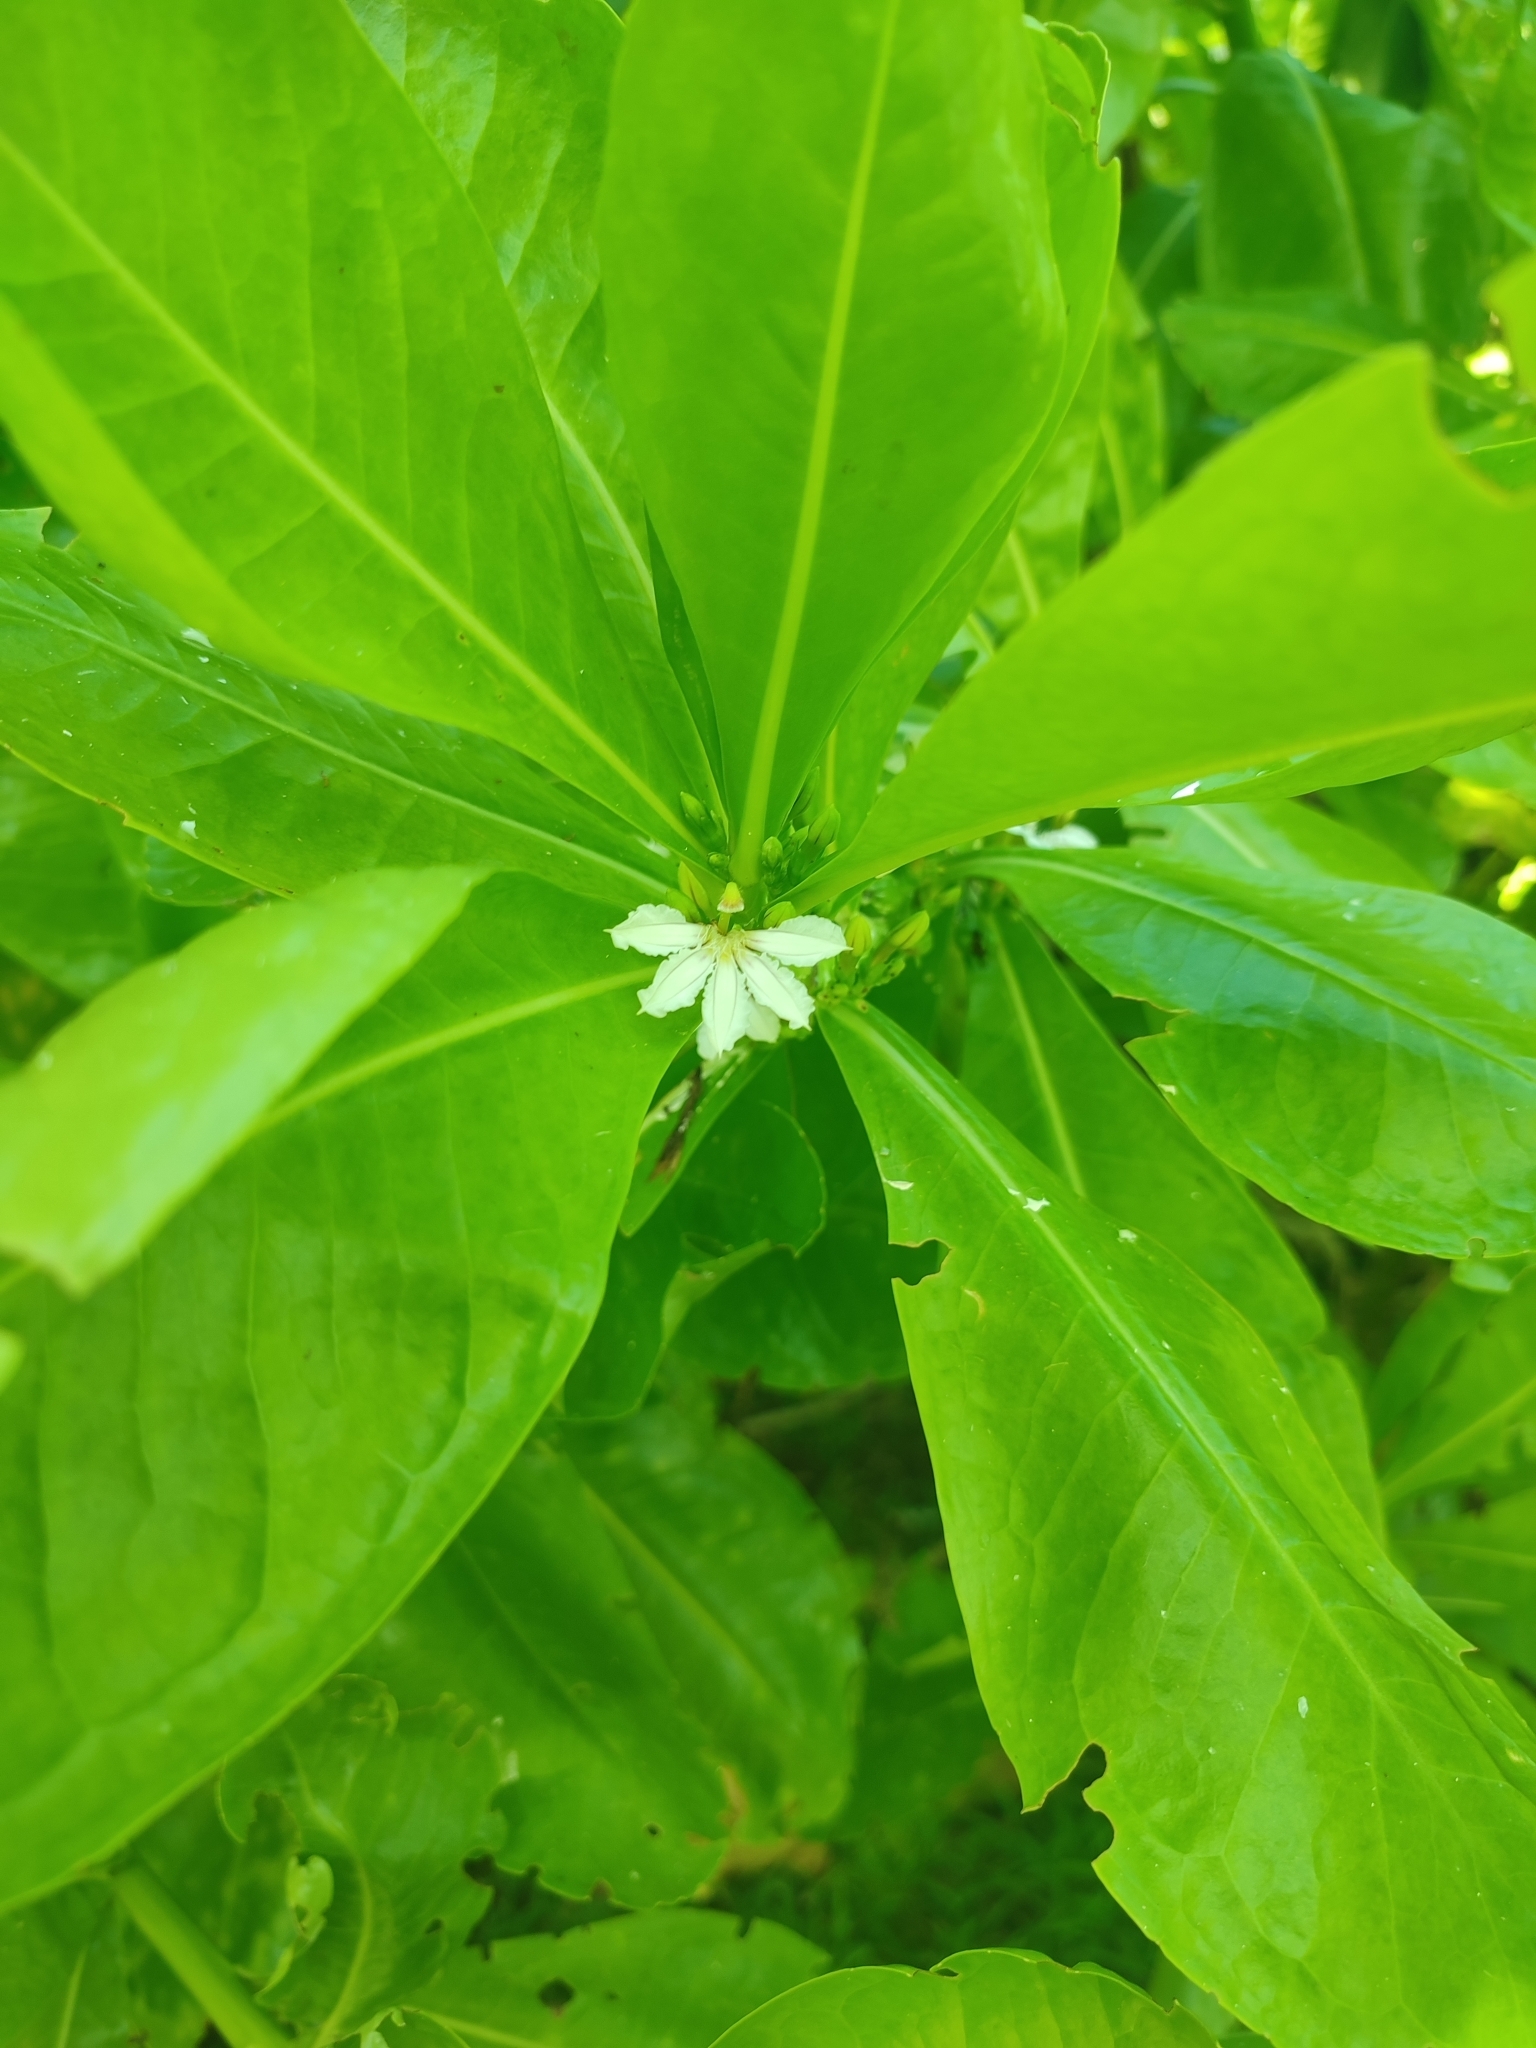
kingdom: Plantae
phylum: Tracheophyta
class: Magnoliopsida
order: Asterales
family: Goodeniaceae
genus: Scaevola
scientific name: Scaevola taccada
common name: Sea lettucetree
